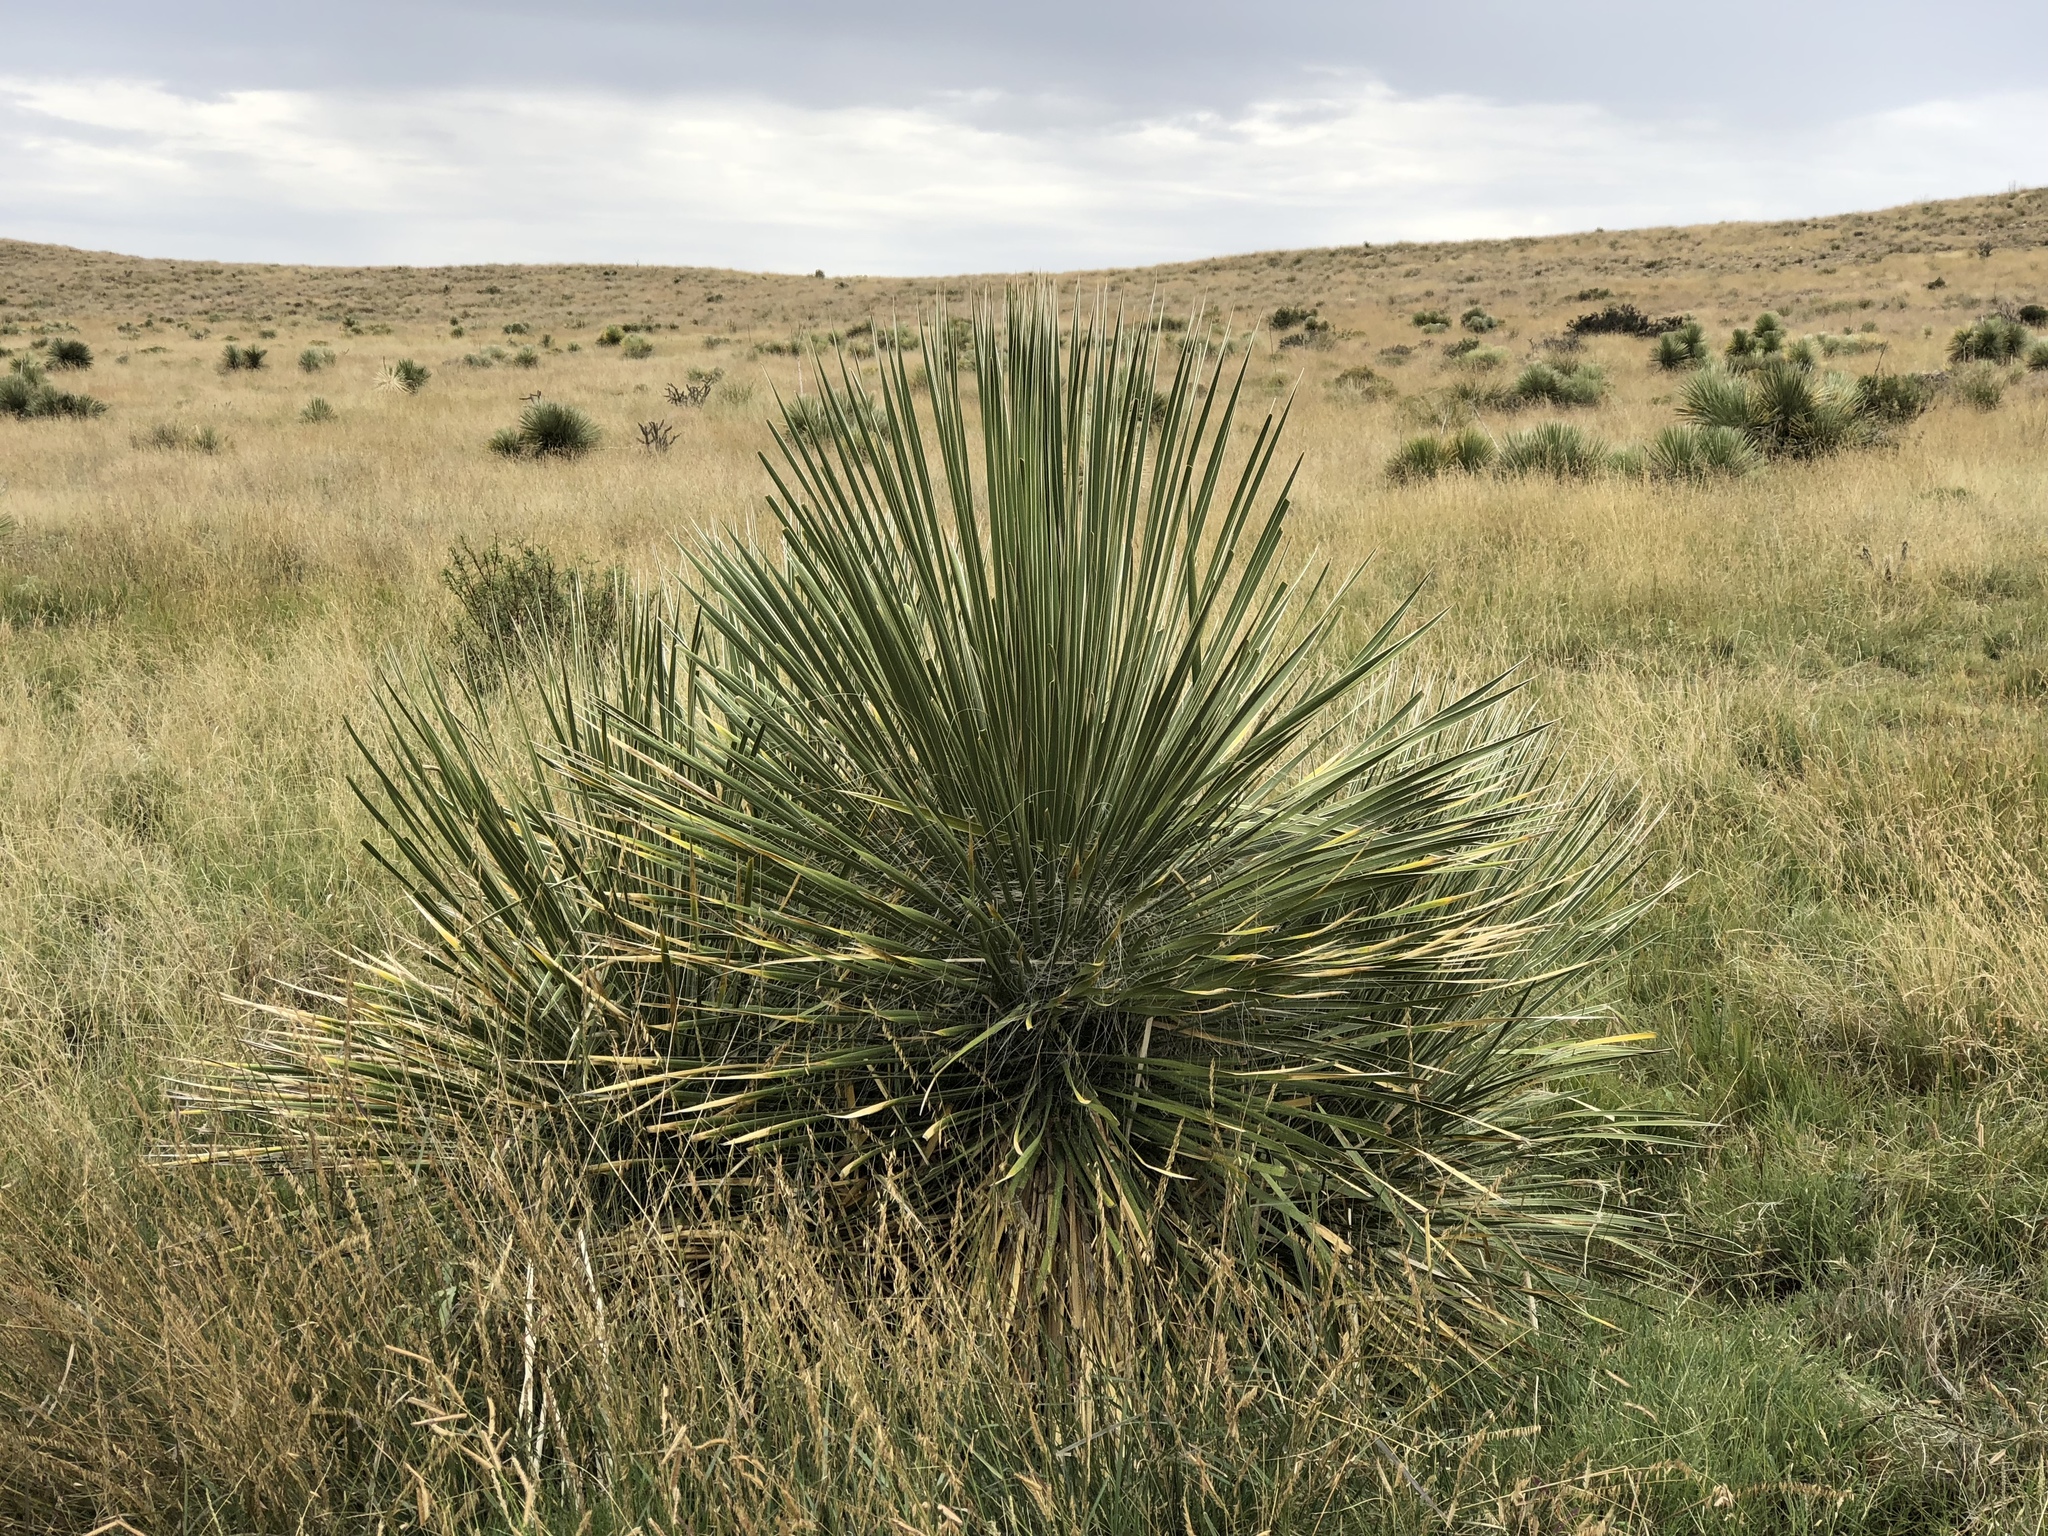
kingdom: Plantae
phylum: Tracheophyta
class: Liliopsida
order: Asparagales
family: Asparagaceae
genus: Yucca
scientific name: Yucca elata
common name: Palmella
